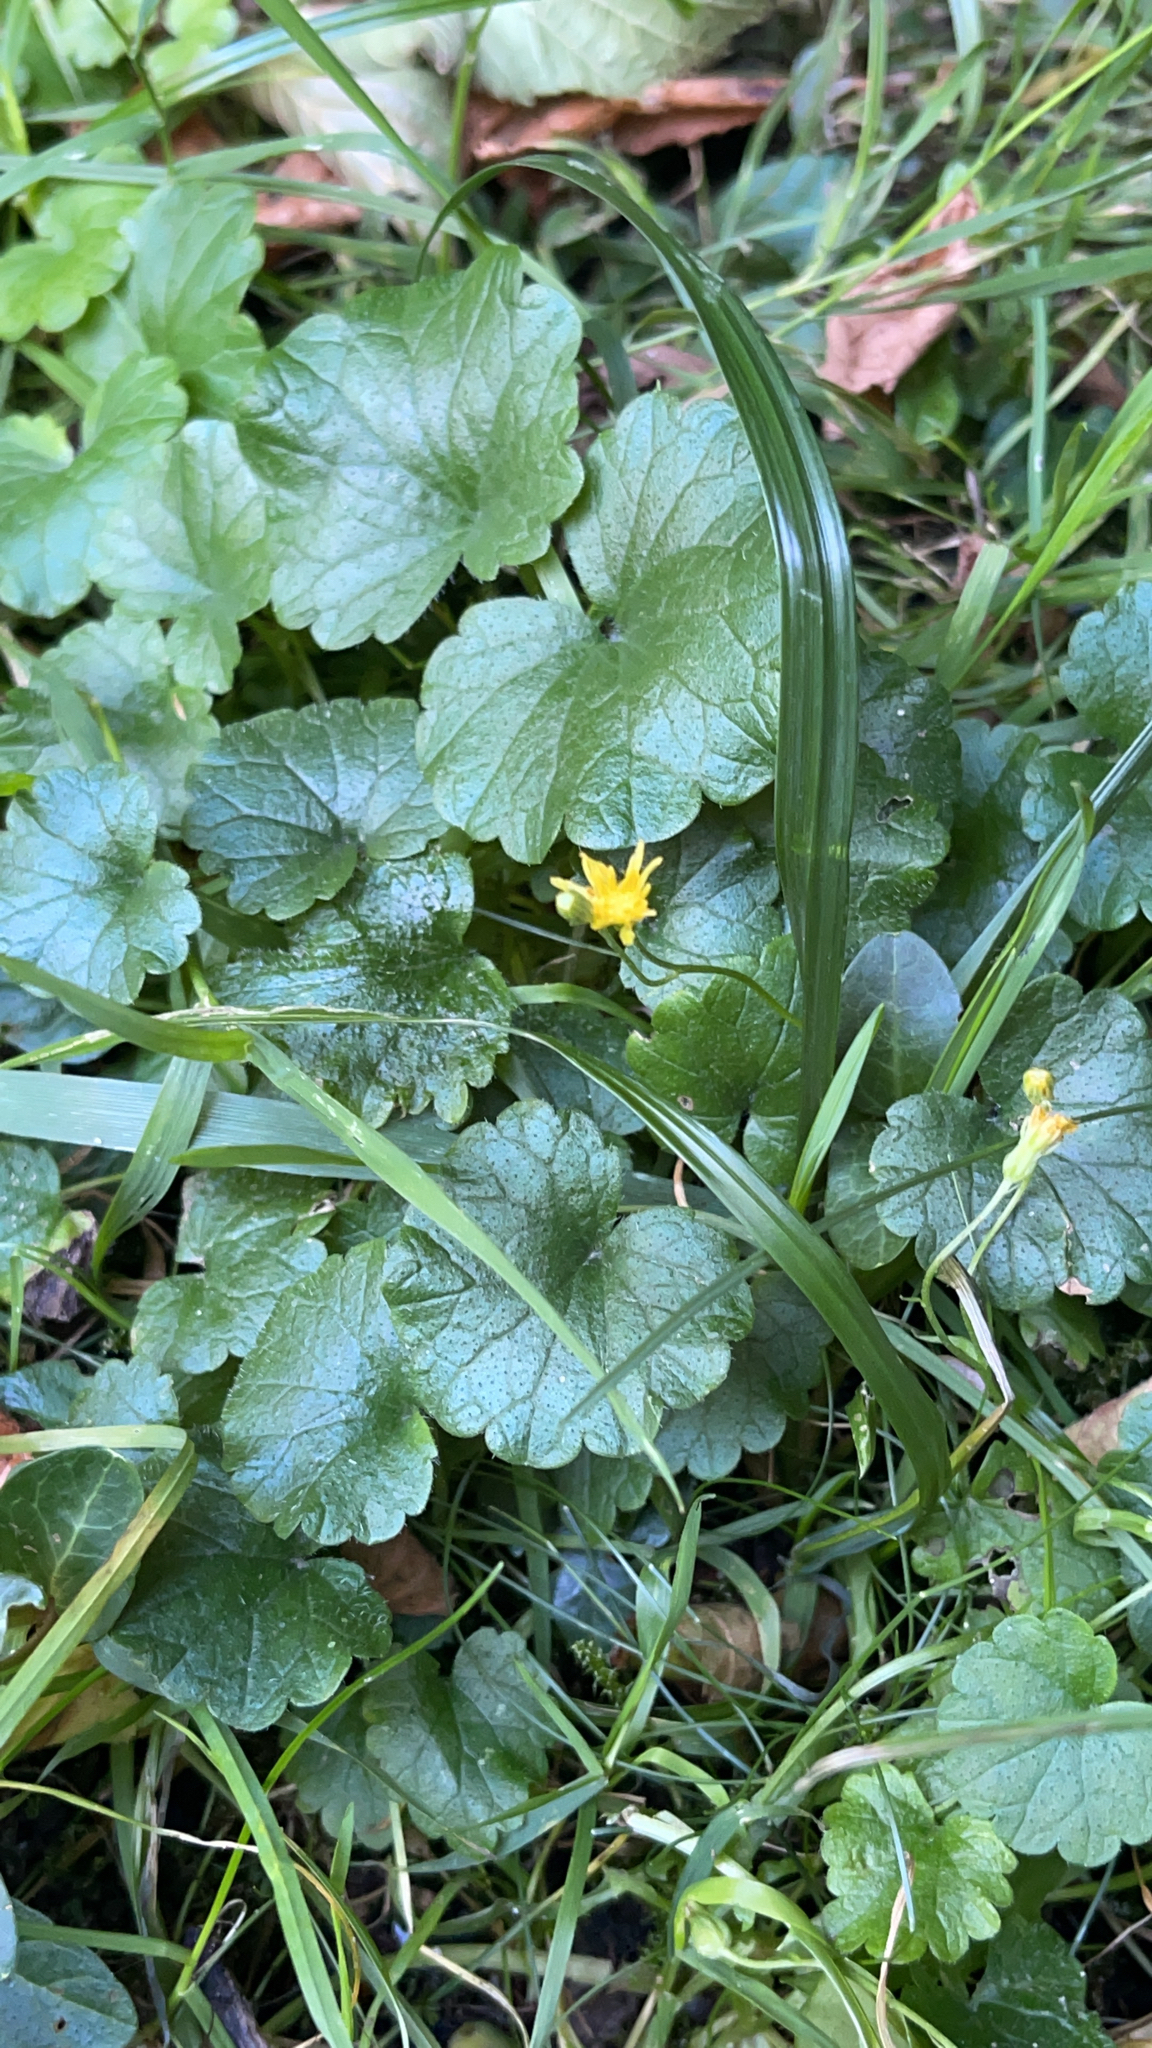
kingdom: Plantae
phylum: Tracheophyta
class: Magnoliopsida
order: Ranunculales
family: Ranunculaceae
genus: Ficaria
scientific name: Ficaria verna
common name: Lesser celandine
